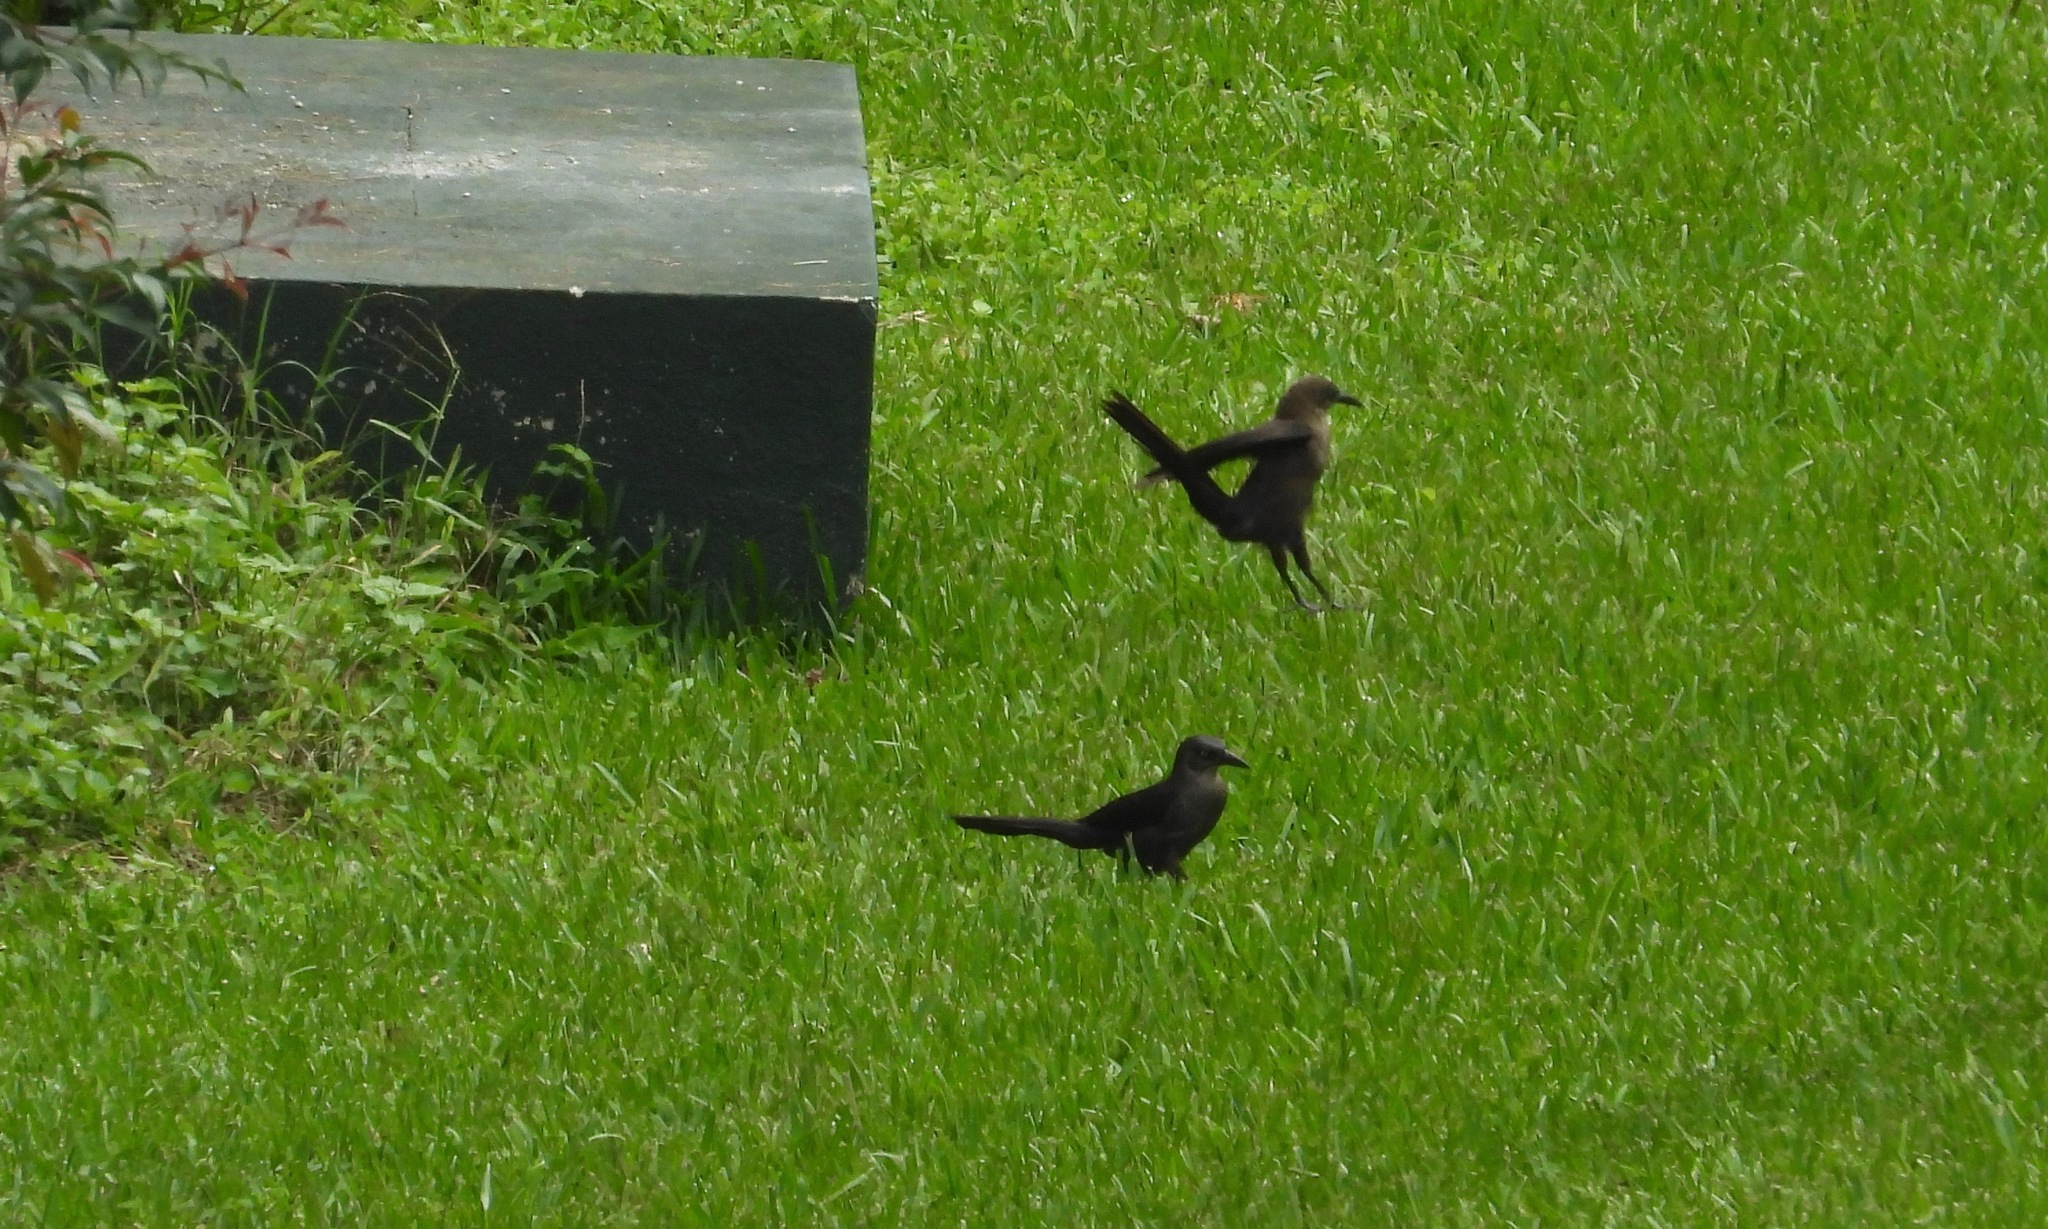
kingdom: Animalia
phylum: Chordata
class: Aves
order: Passeriformes
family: Icteridae
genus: Quiscalus
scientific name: Quiscalus mexicanus
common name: Great-tailed grackle
